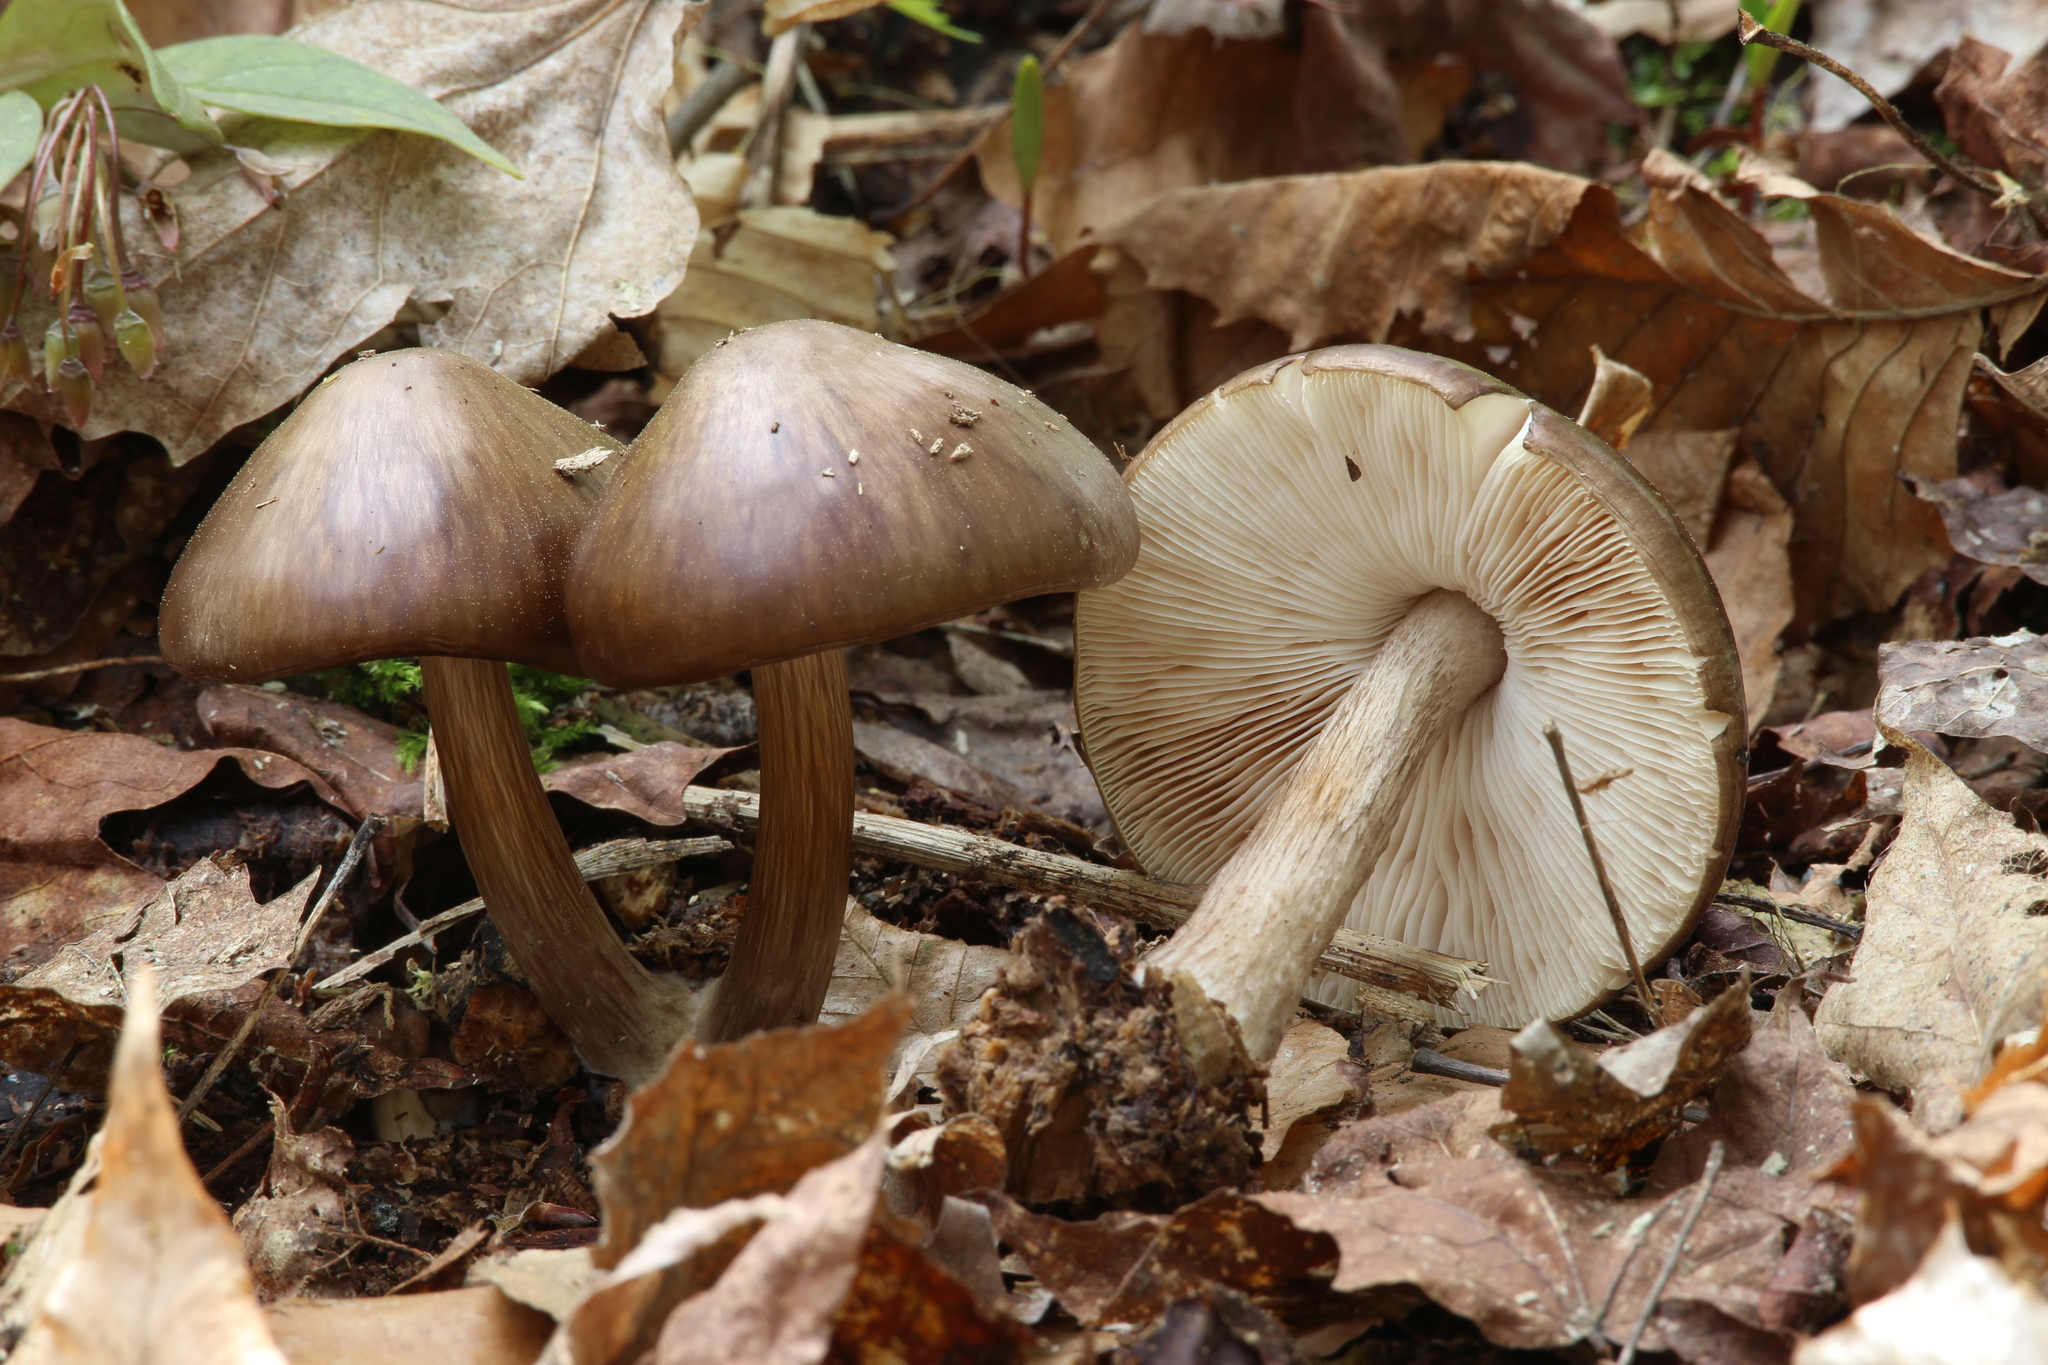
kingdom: Fungi
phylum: Basidiomycota
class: Agaricomycetes
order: Agaricales
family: Pluteaceae
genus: Pluteus
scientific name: Pluteus cervinus
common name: Deer shield
